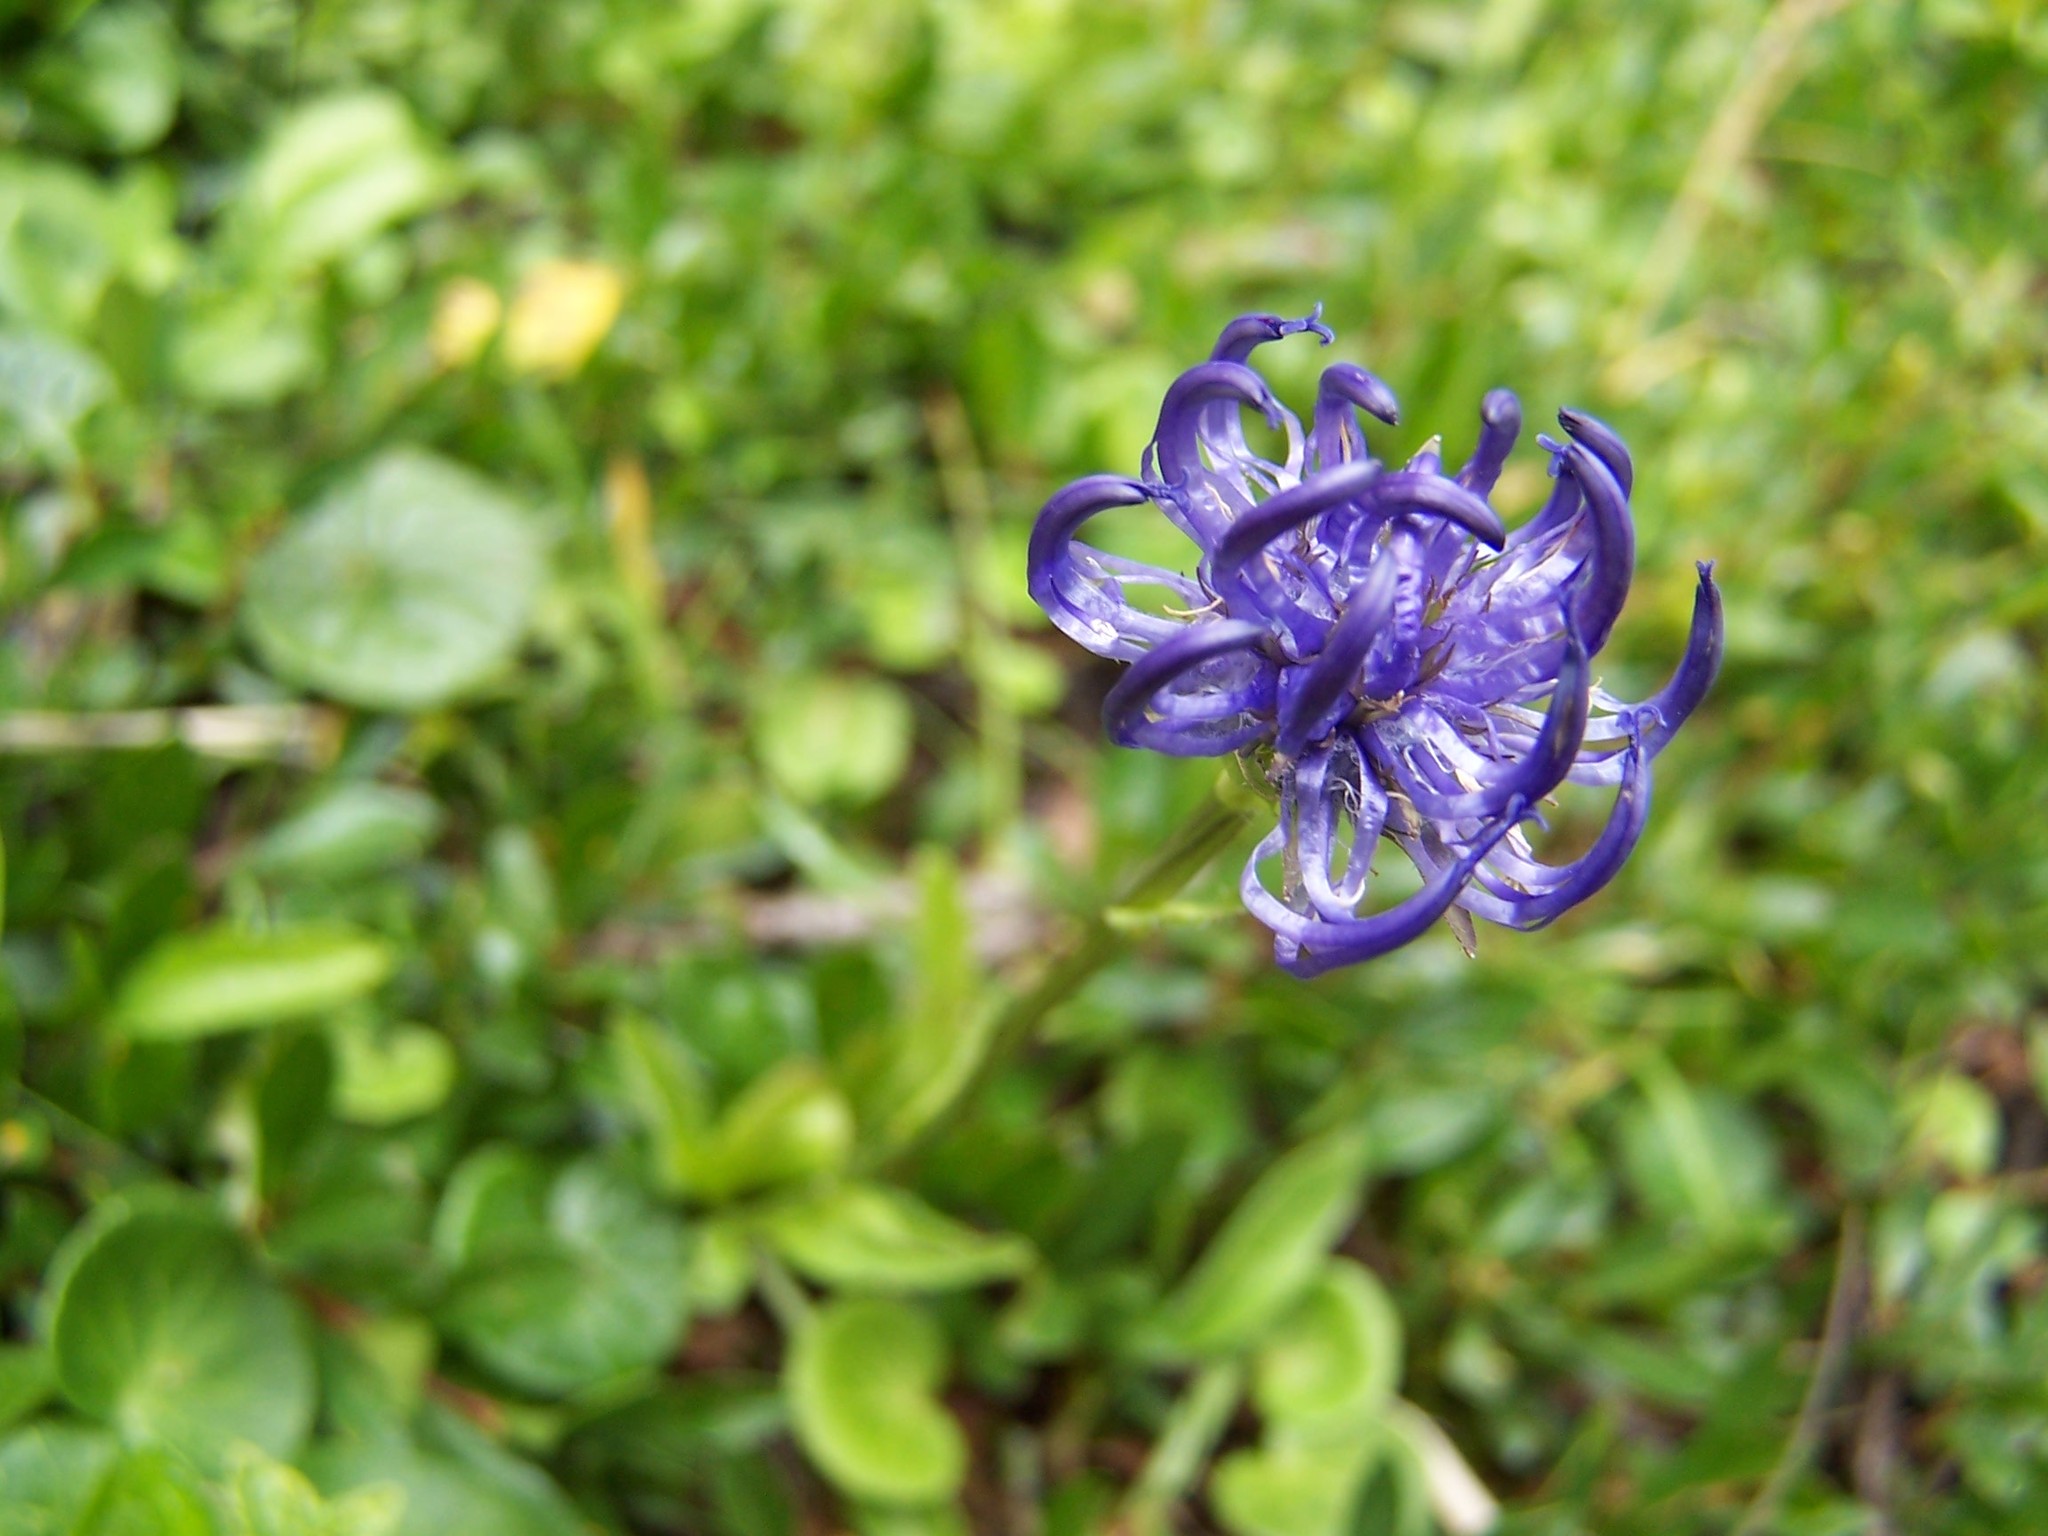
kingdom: Plantae
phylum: Tracheophyta
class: Magnoliopsida
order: Asterales
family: Campanulaceae
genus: Phyteuma
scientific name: Phyteuma orbiculare
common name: Round-headed rampion
